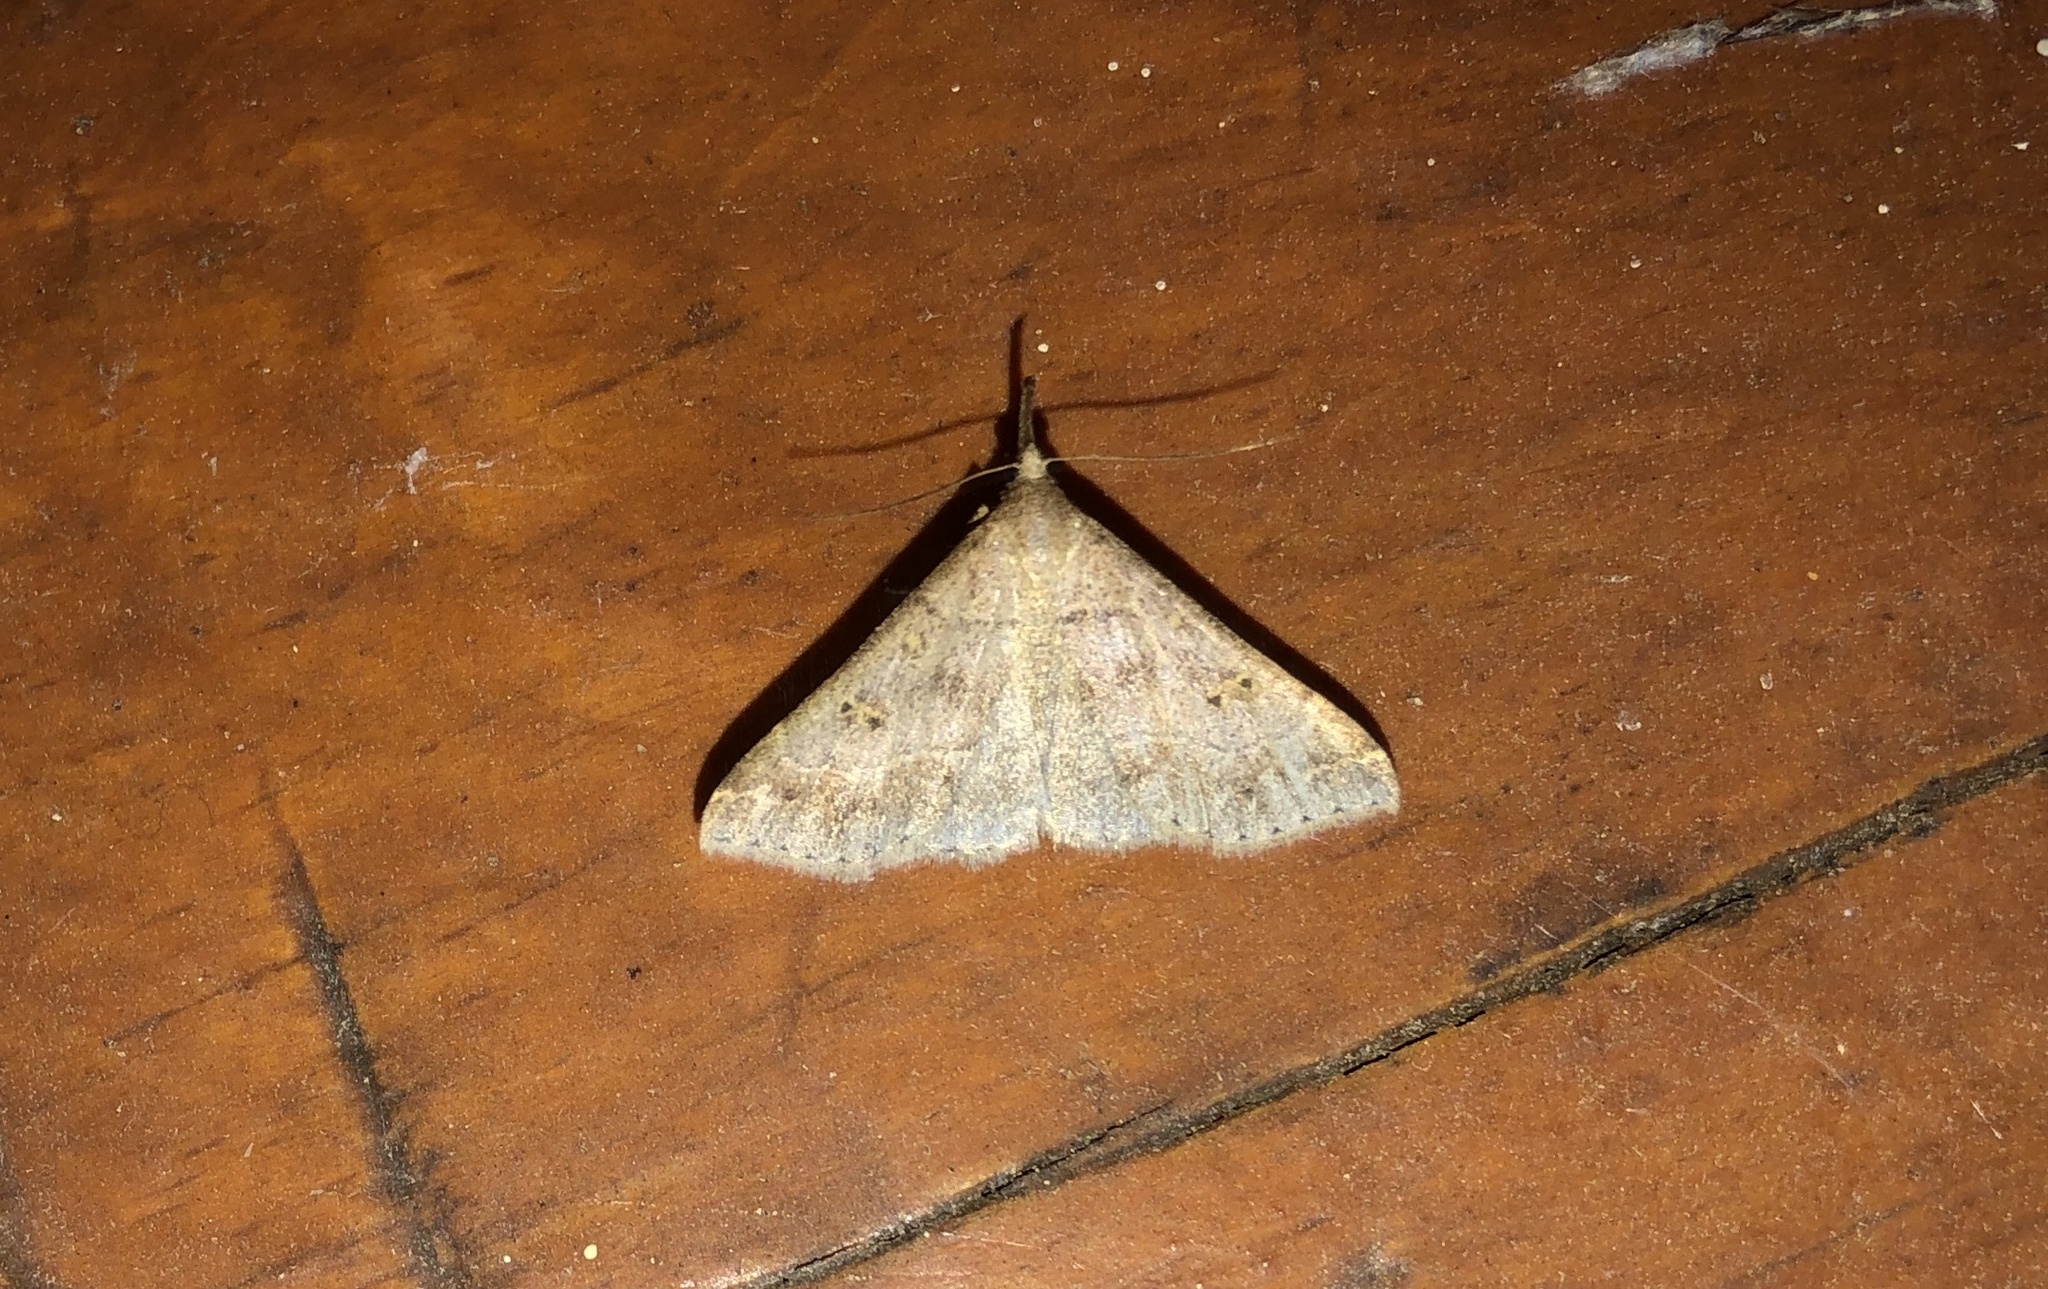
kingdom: Animalia
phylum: Arthropoda
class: Insecta
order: Lepidoptera
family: Erebidae
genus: Renia
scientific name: Renia flavipunctalis
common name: Yellow-spotted renia moth
